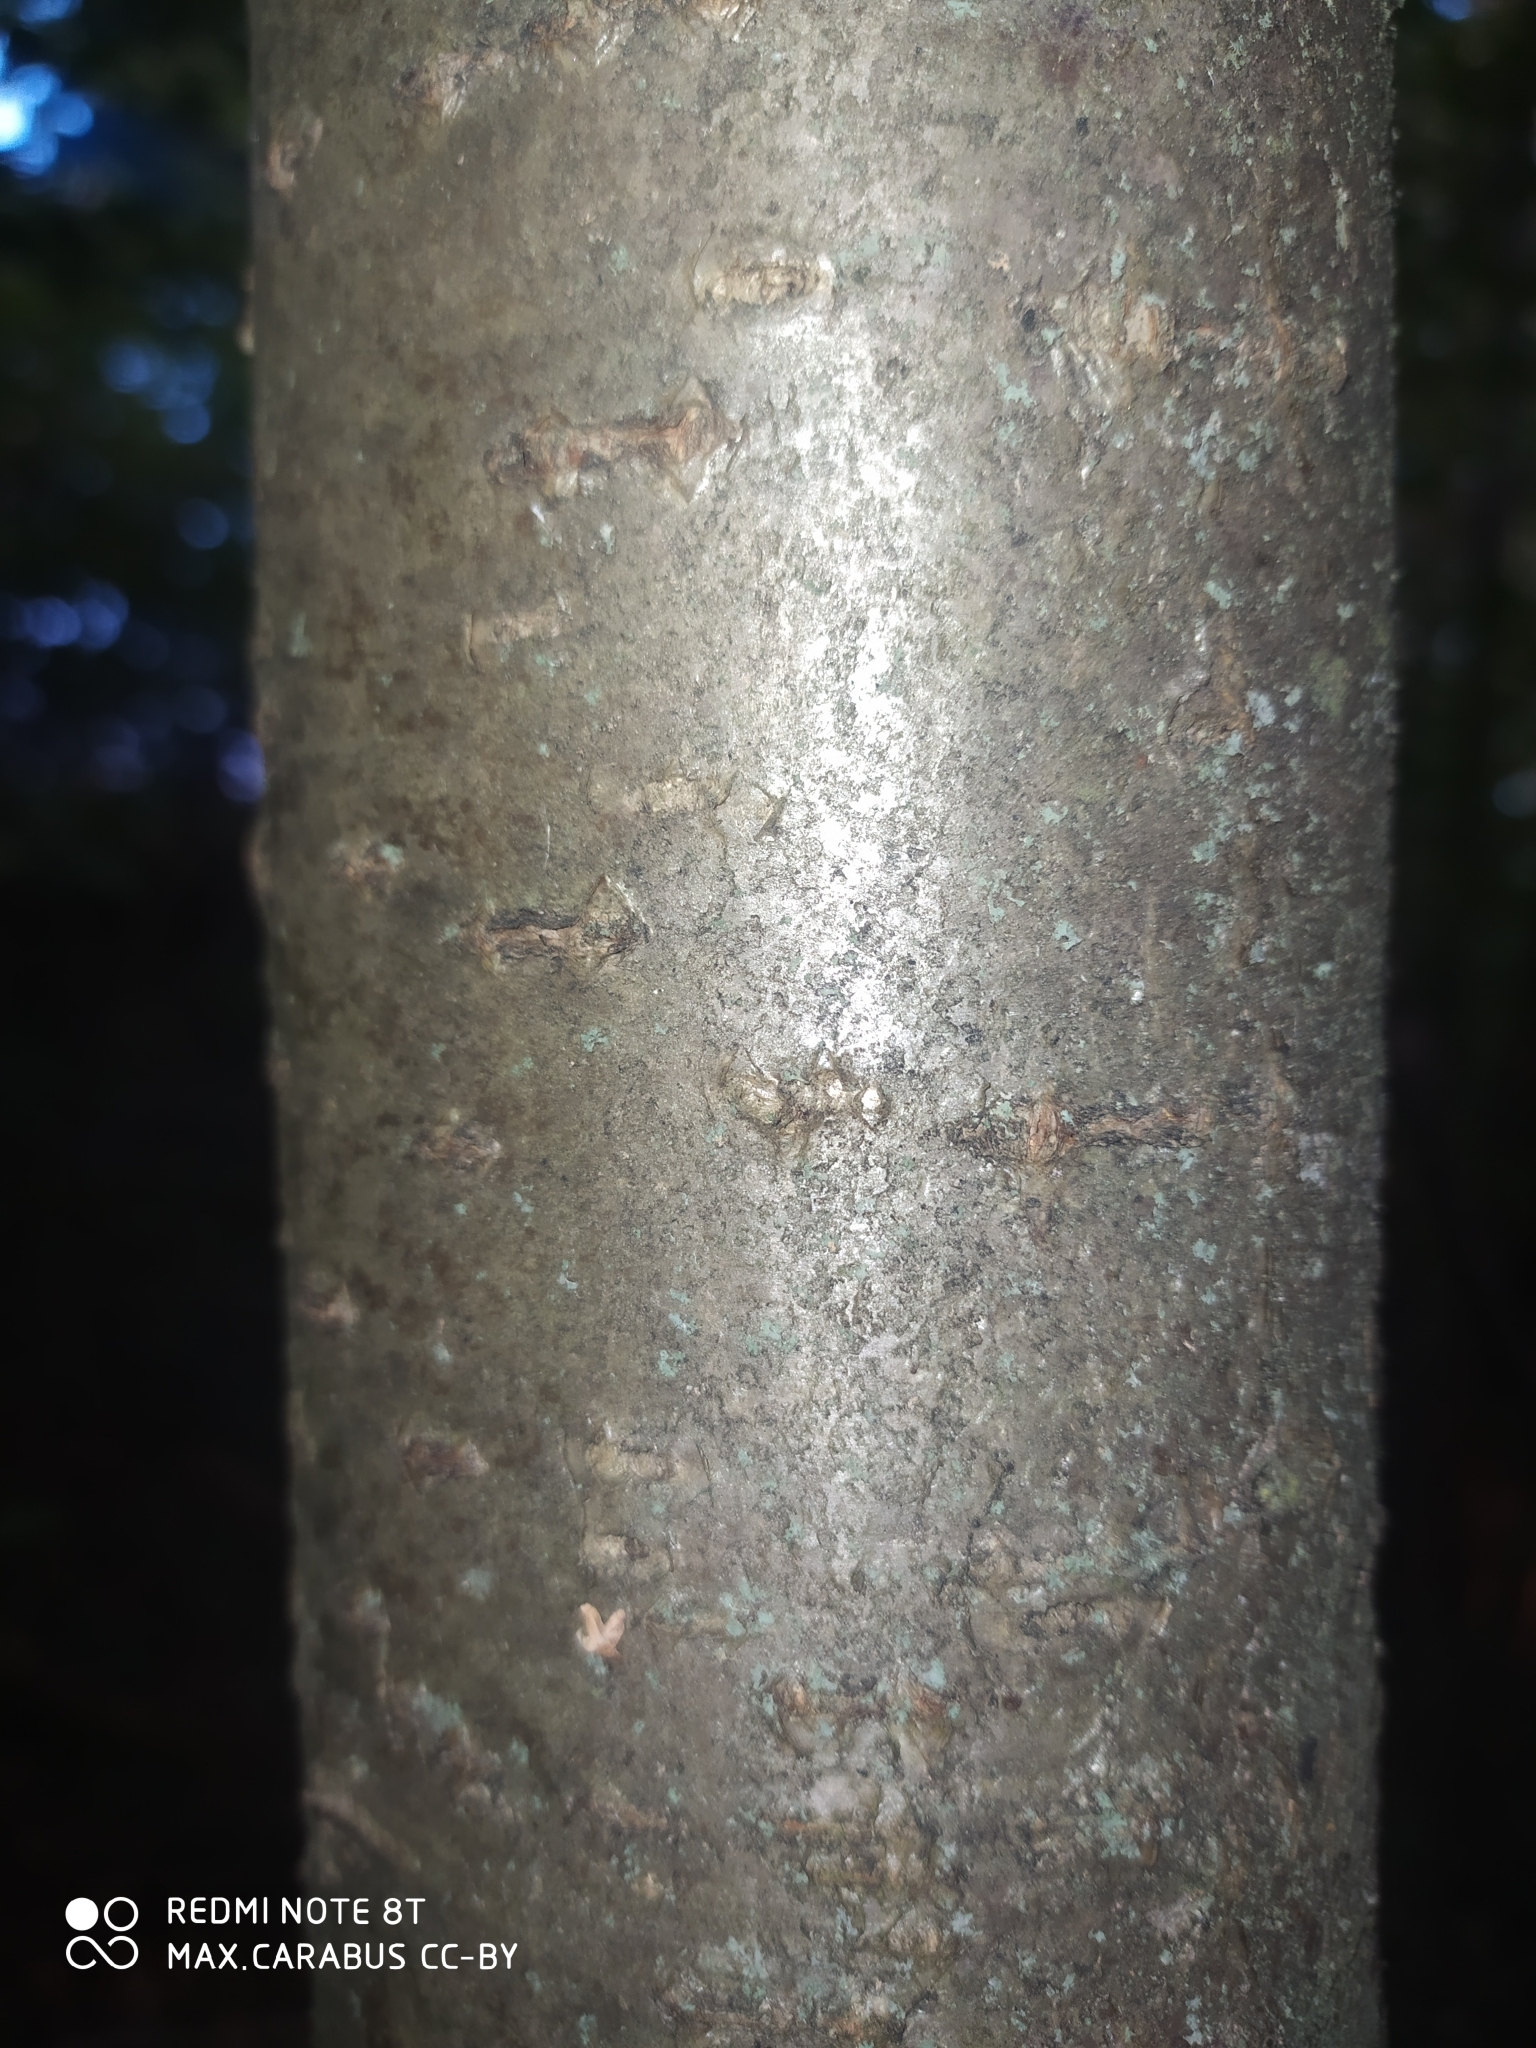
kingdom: Plantae
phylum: Tracheophyta
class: Magnoliopsida
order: Rosales
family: Rosaceae
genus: Sorbus
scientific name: Sorbus aucuparia
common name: Rowan
